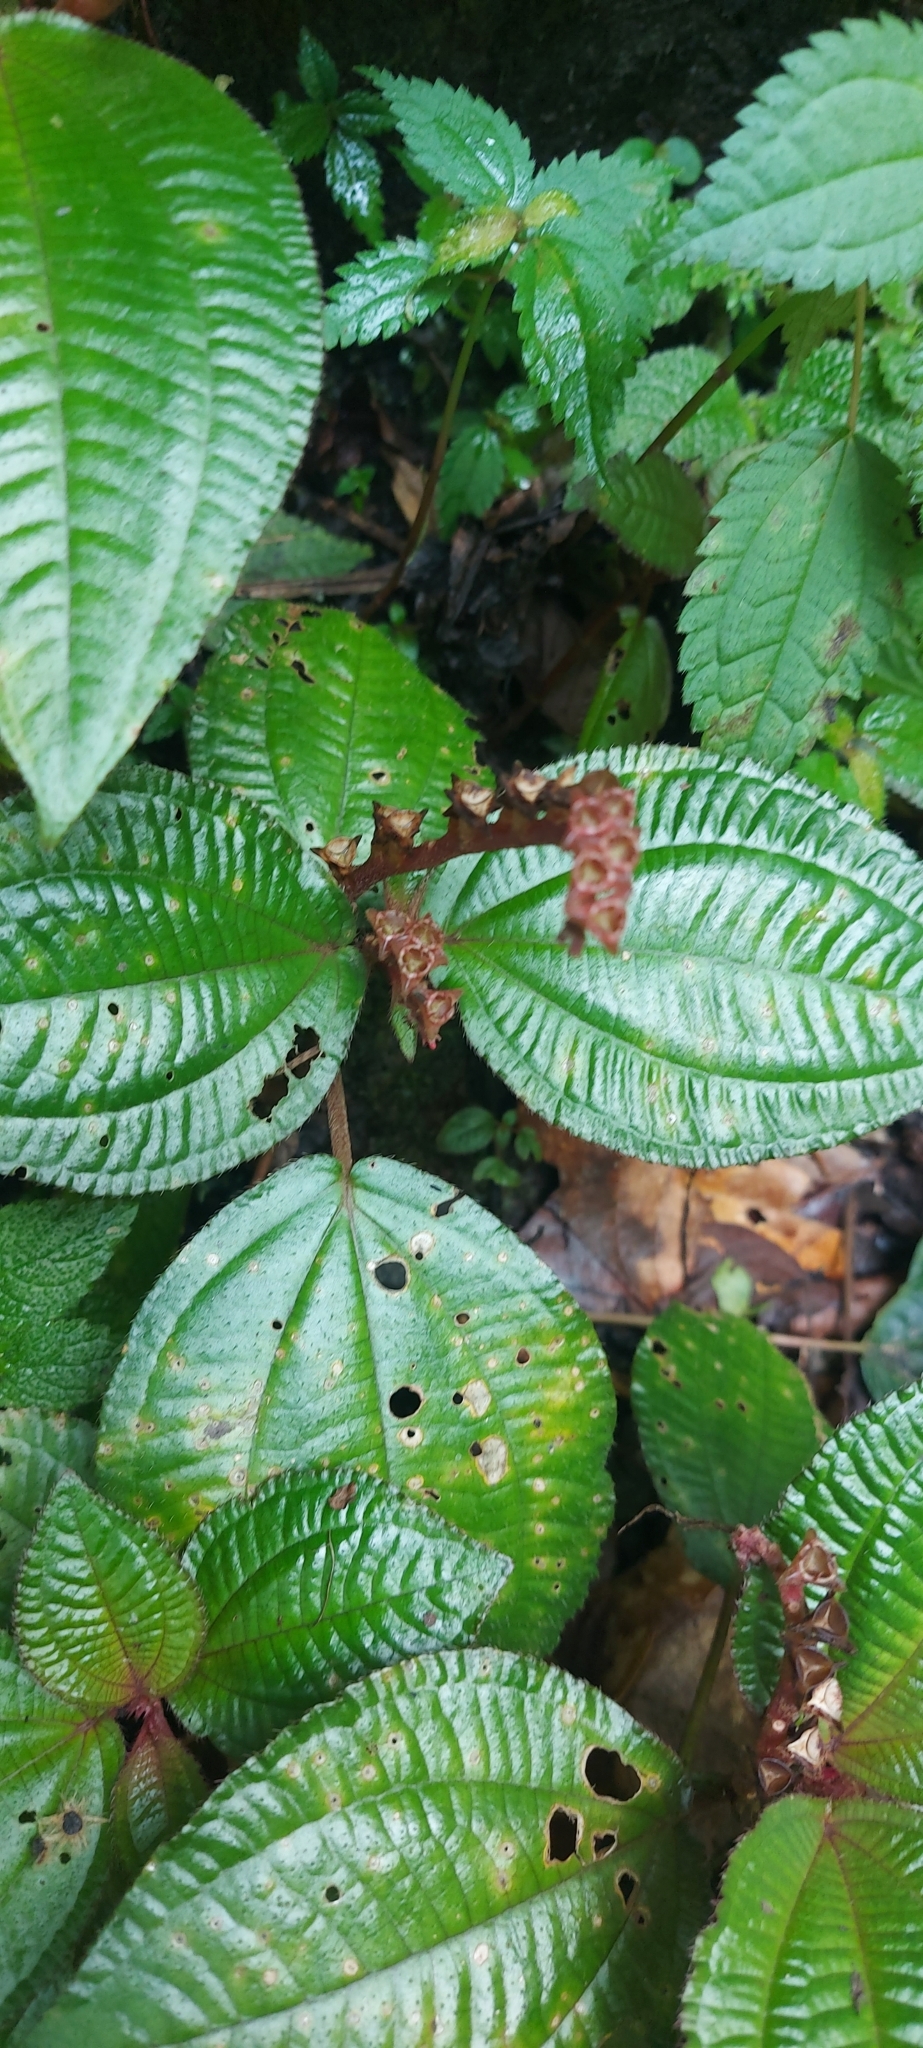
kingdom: Plantae
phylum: Tracheophyta
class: Magnoliopsida
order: Myrtales
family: Melastomataceae
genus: Triolena
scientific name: Triolena hirsuta
